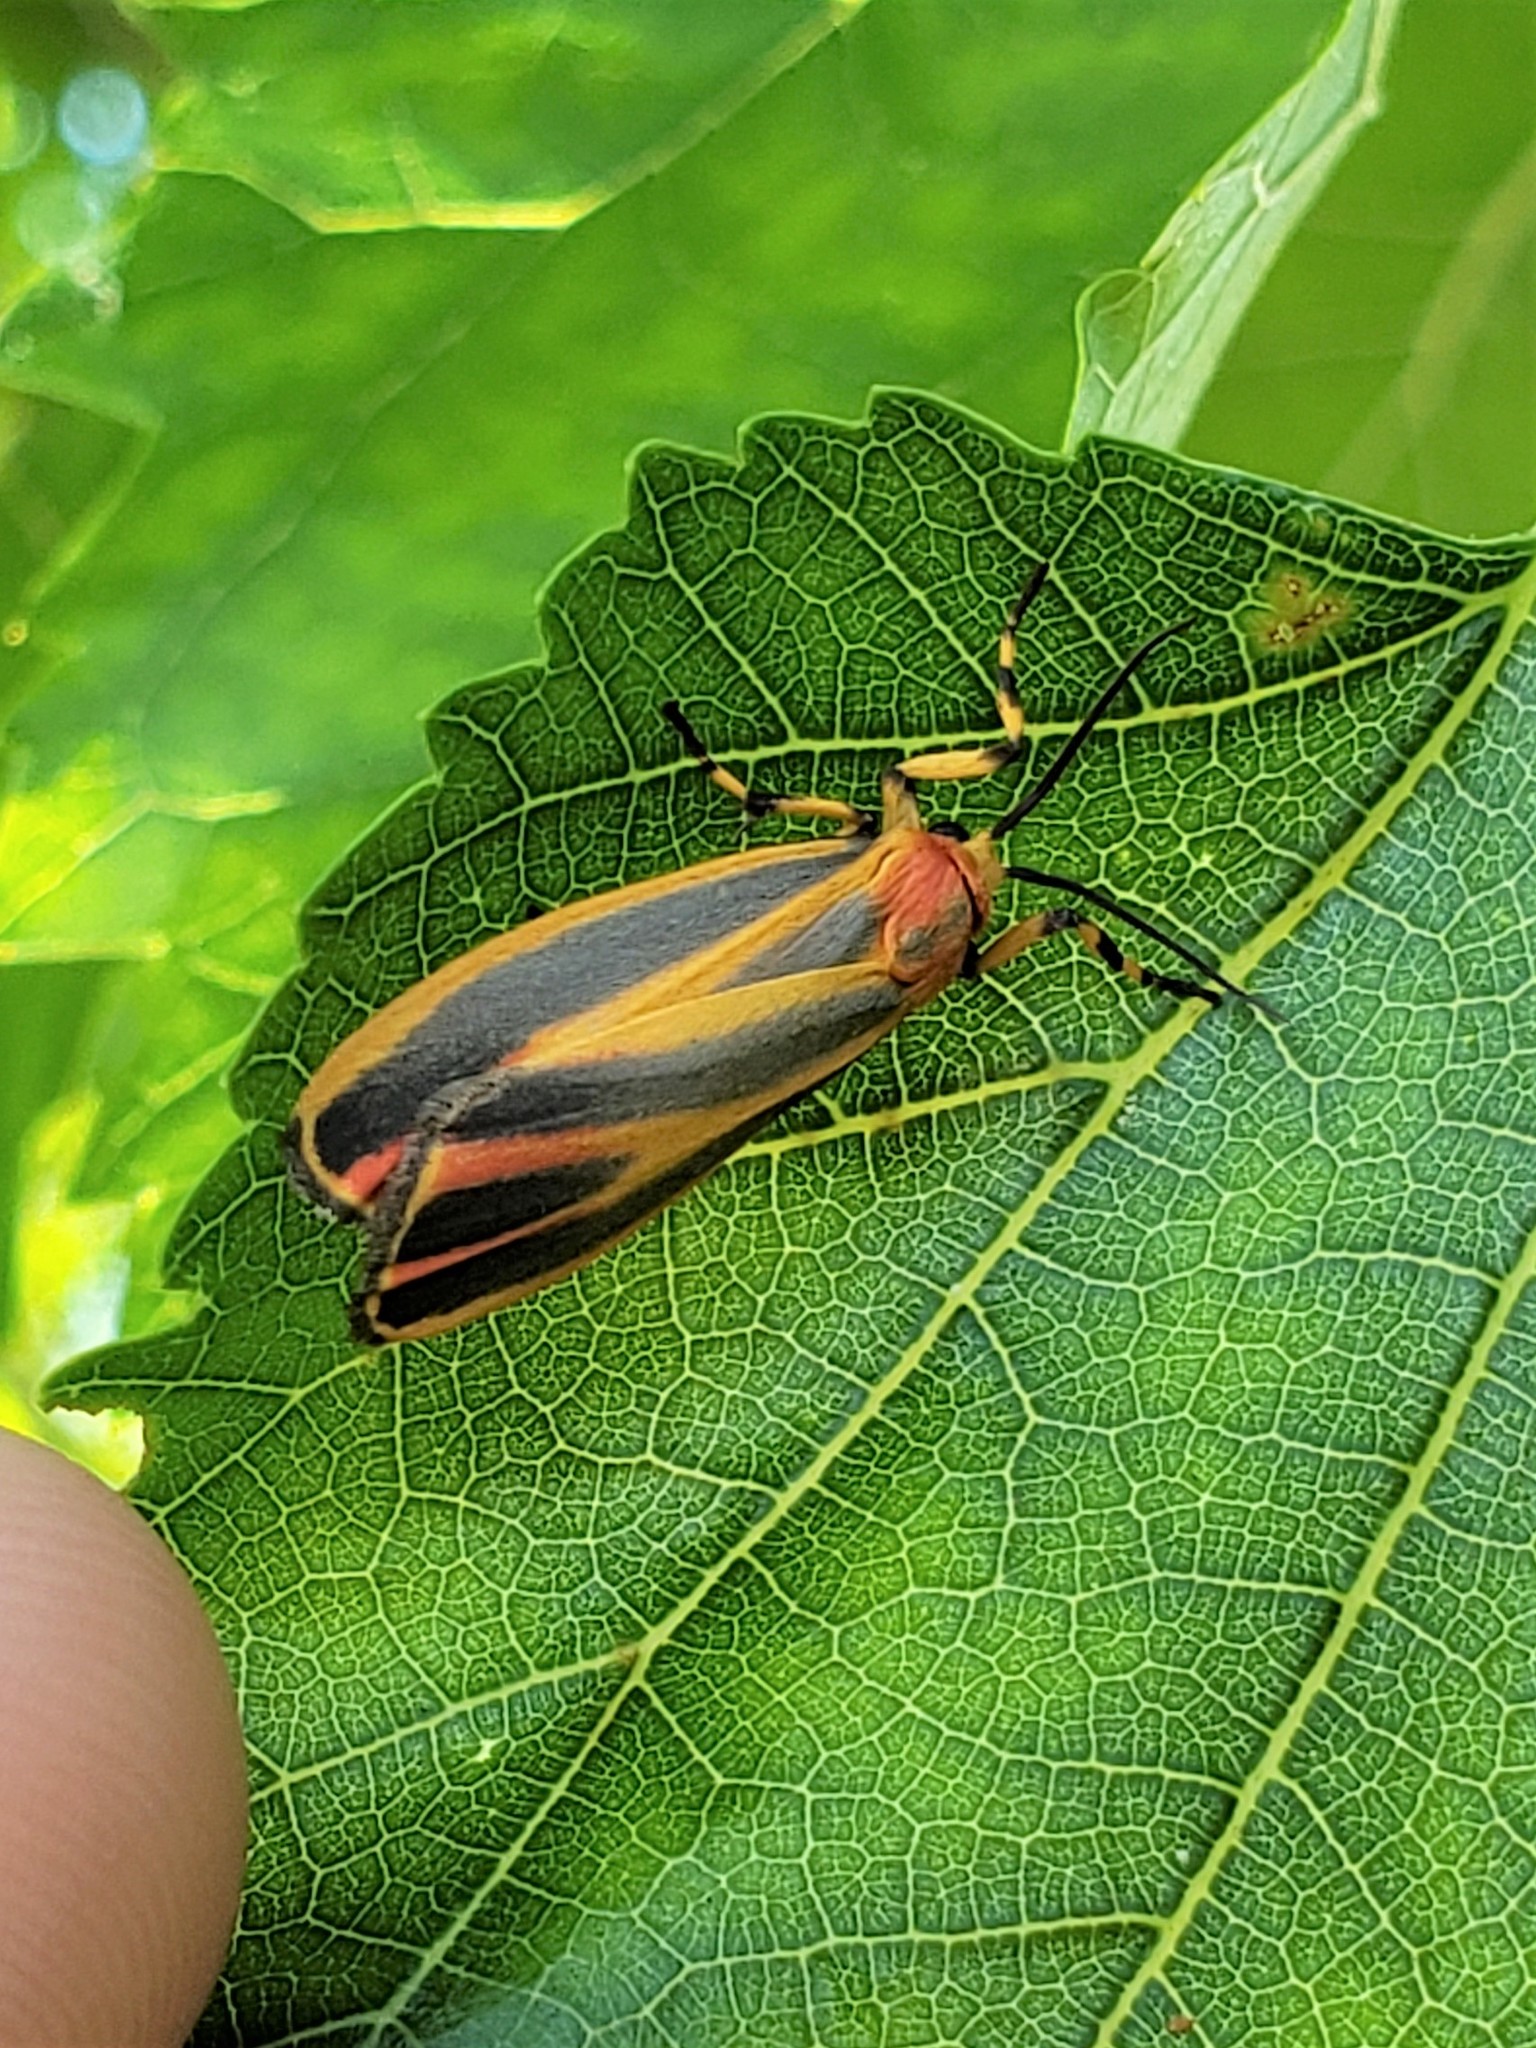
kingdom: Animalia
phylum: Arthropoda
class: Insecta
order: Lepidoptera
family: Erebidae
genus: Hypoprepia
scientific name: Hypoprepia fucosa
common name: Painted lichen moth
